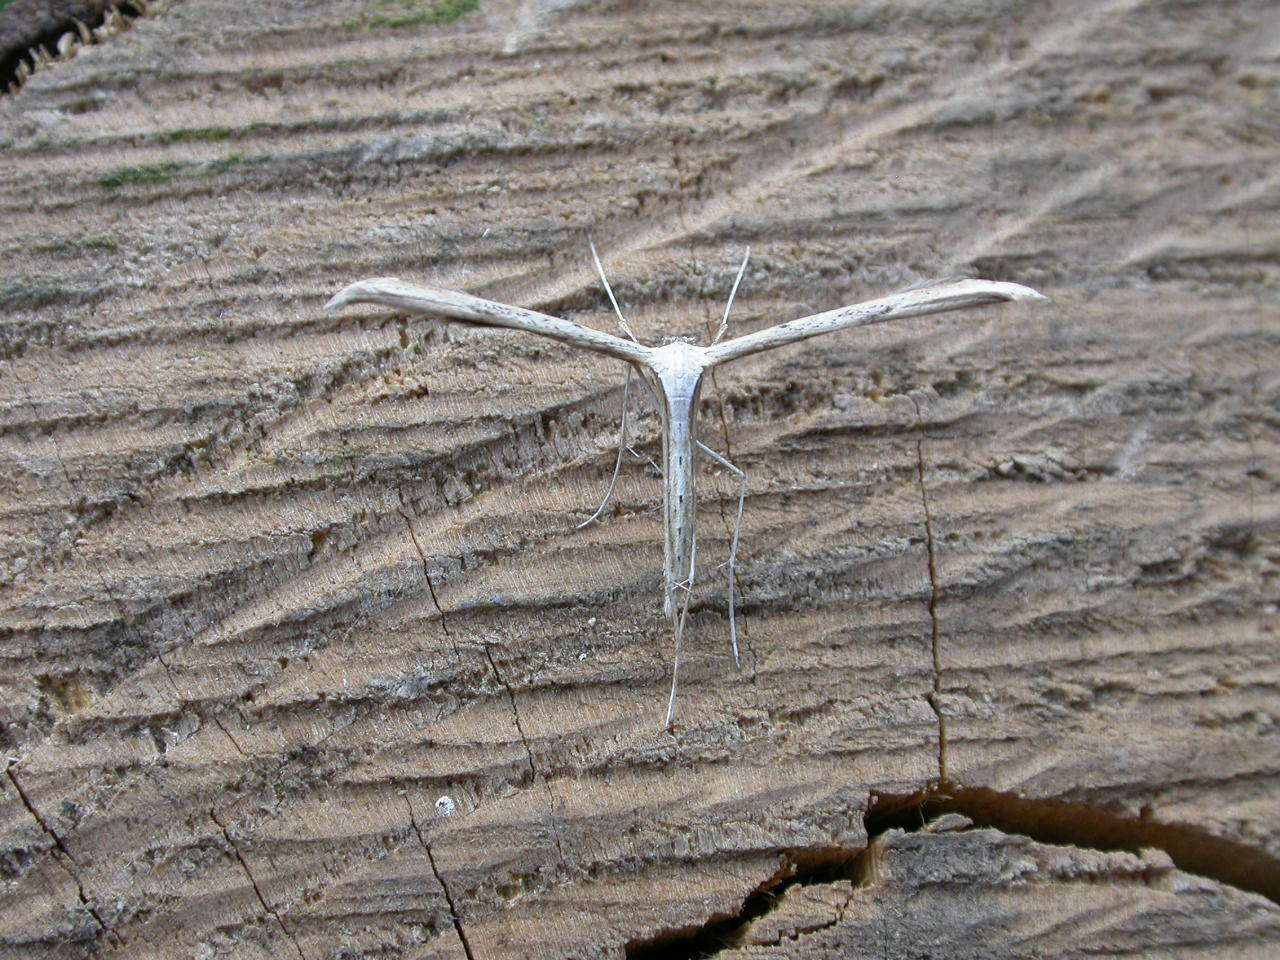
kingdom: Animalia
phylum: Arthropoda
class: Insecta
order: Lepidoptera
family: Pterophoridae
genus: Emmelina
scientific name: Emmelina monodactyla
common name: Common plume
